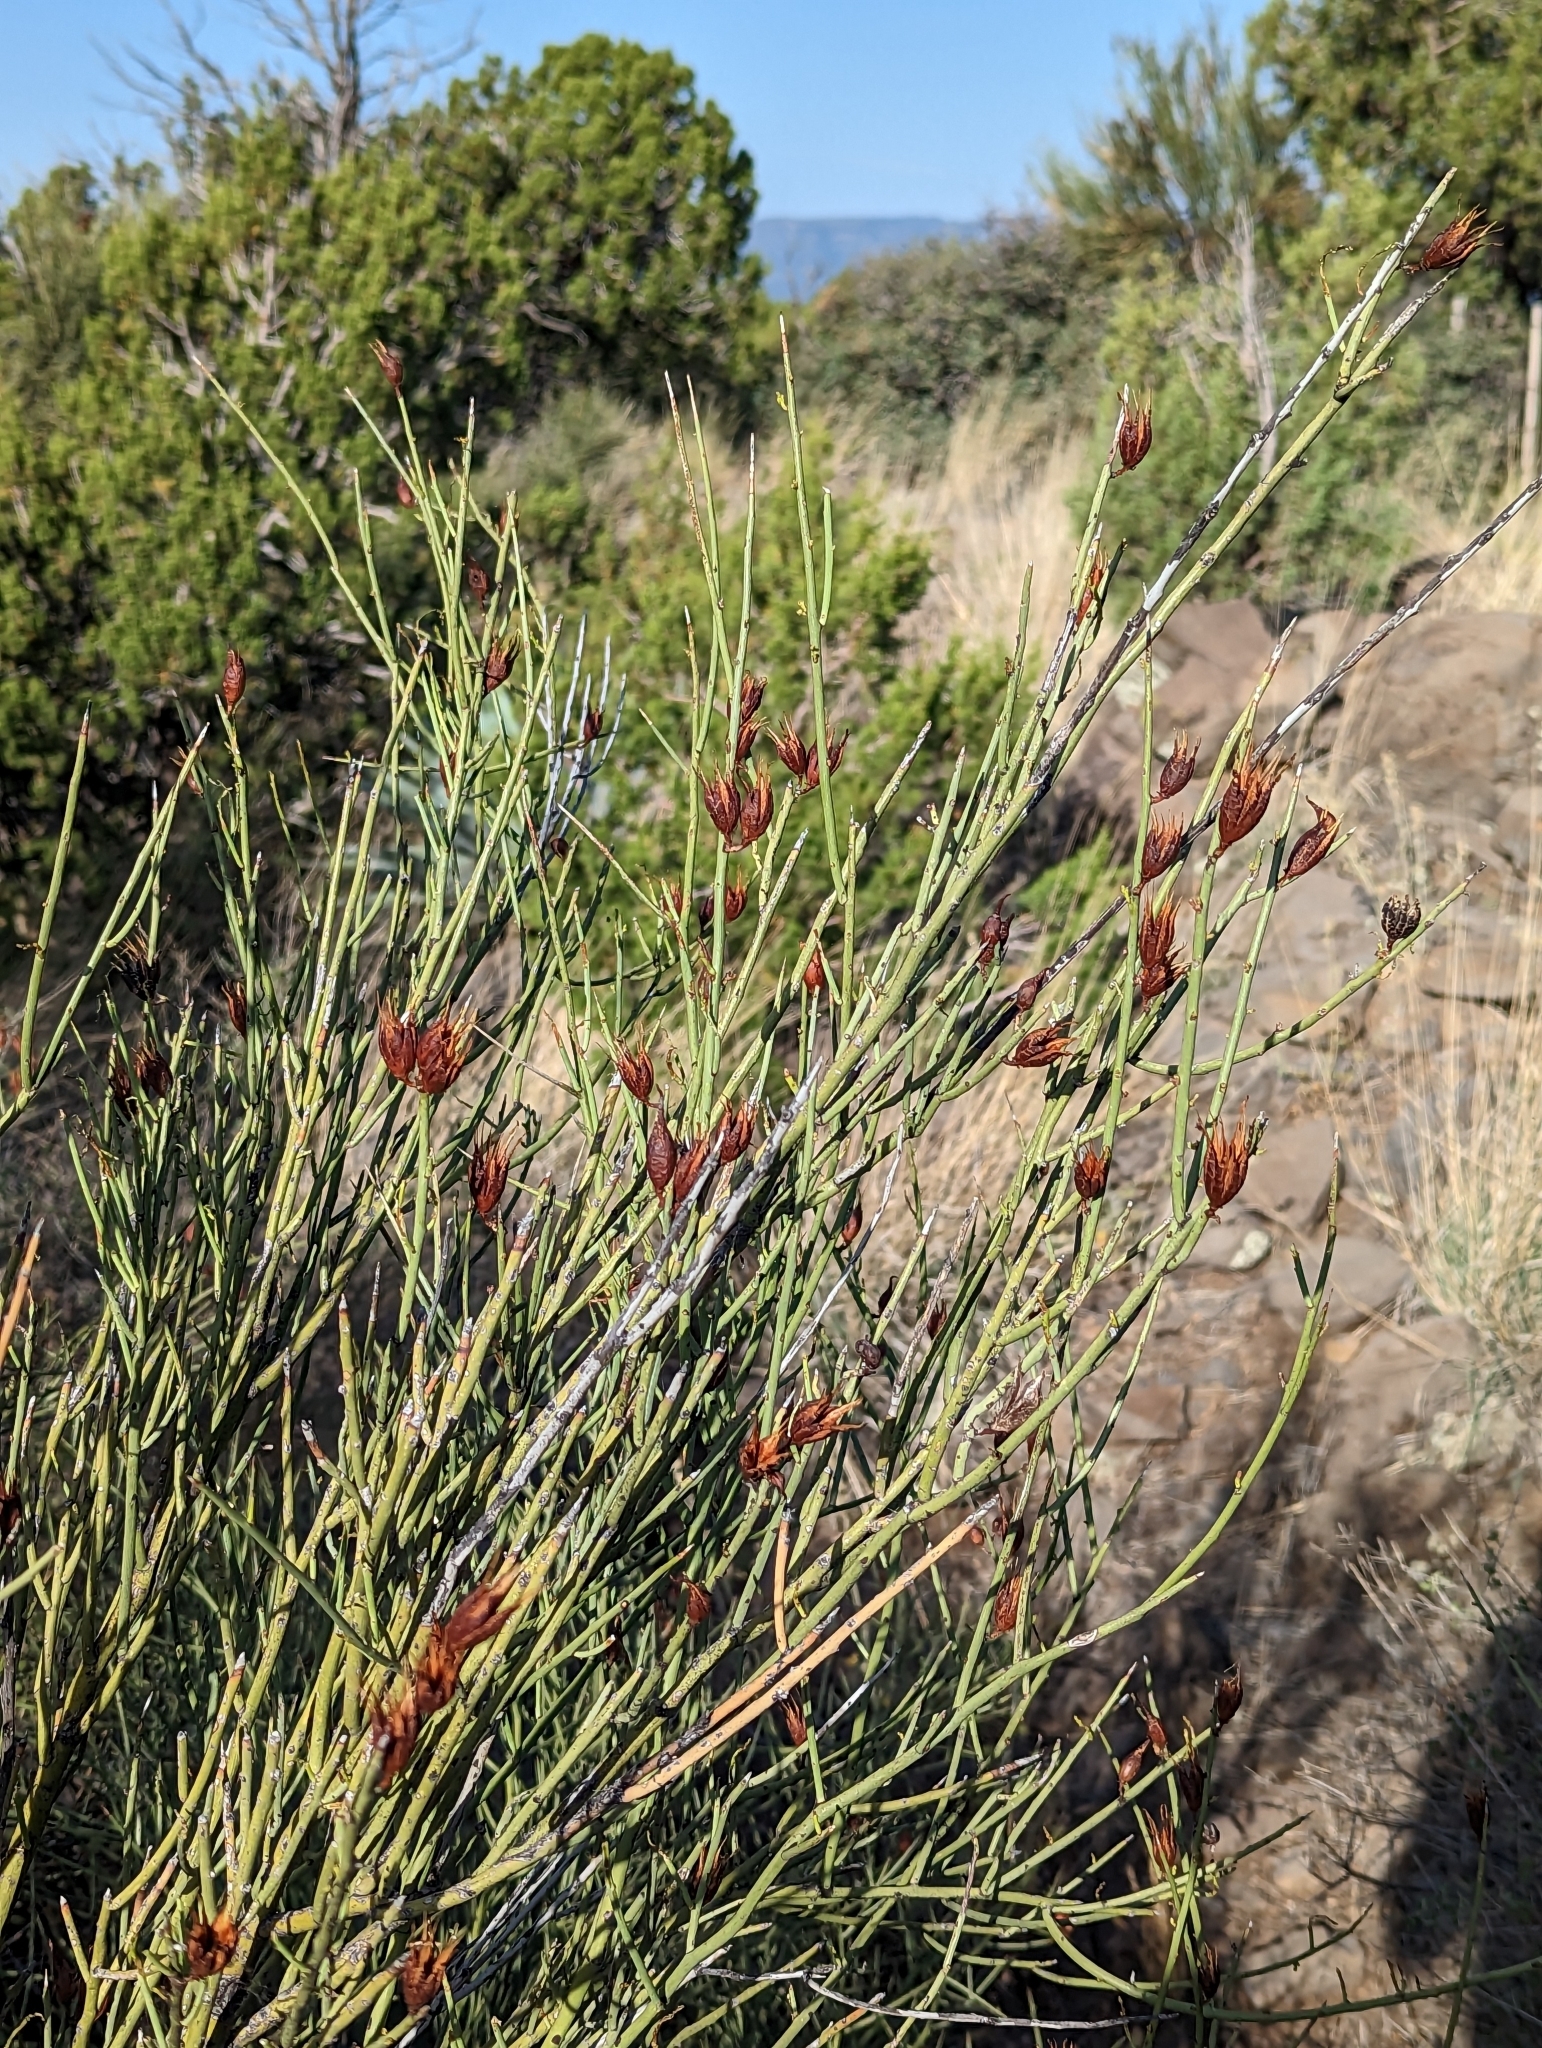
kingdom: Plantae
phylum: Tracheophyta
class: Magnoliopsida
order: Celastrales
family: Celastraceae
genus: Canotia
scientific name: Canotia holacantha
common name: Crucifixion thorns
